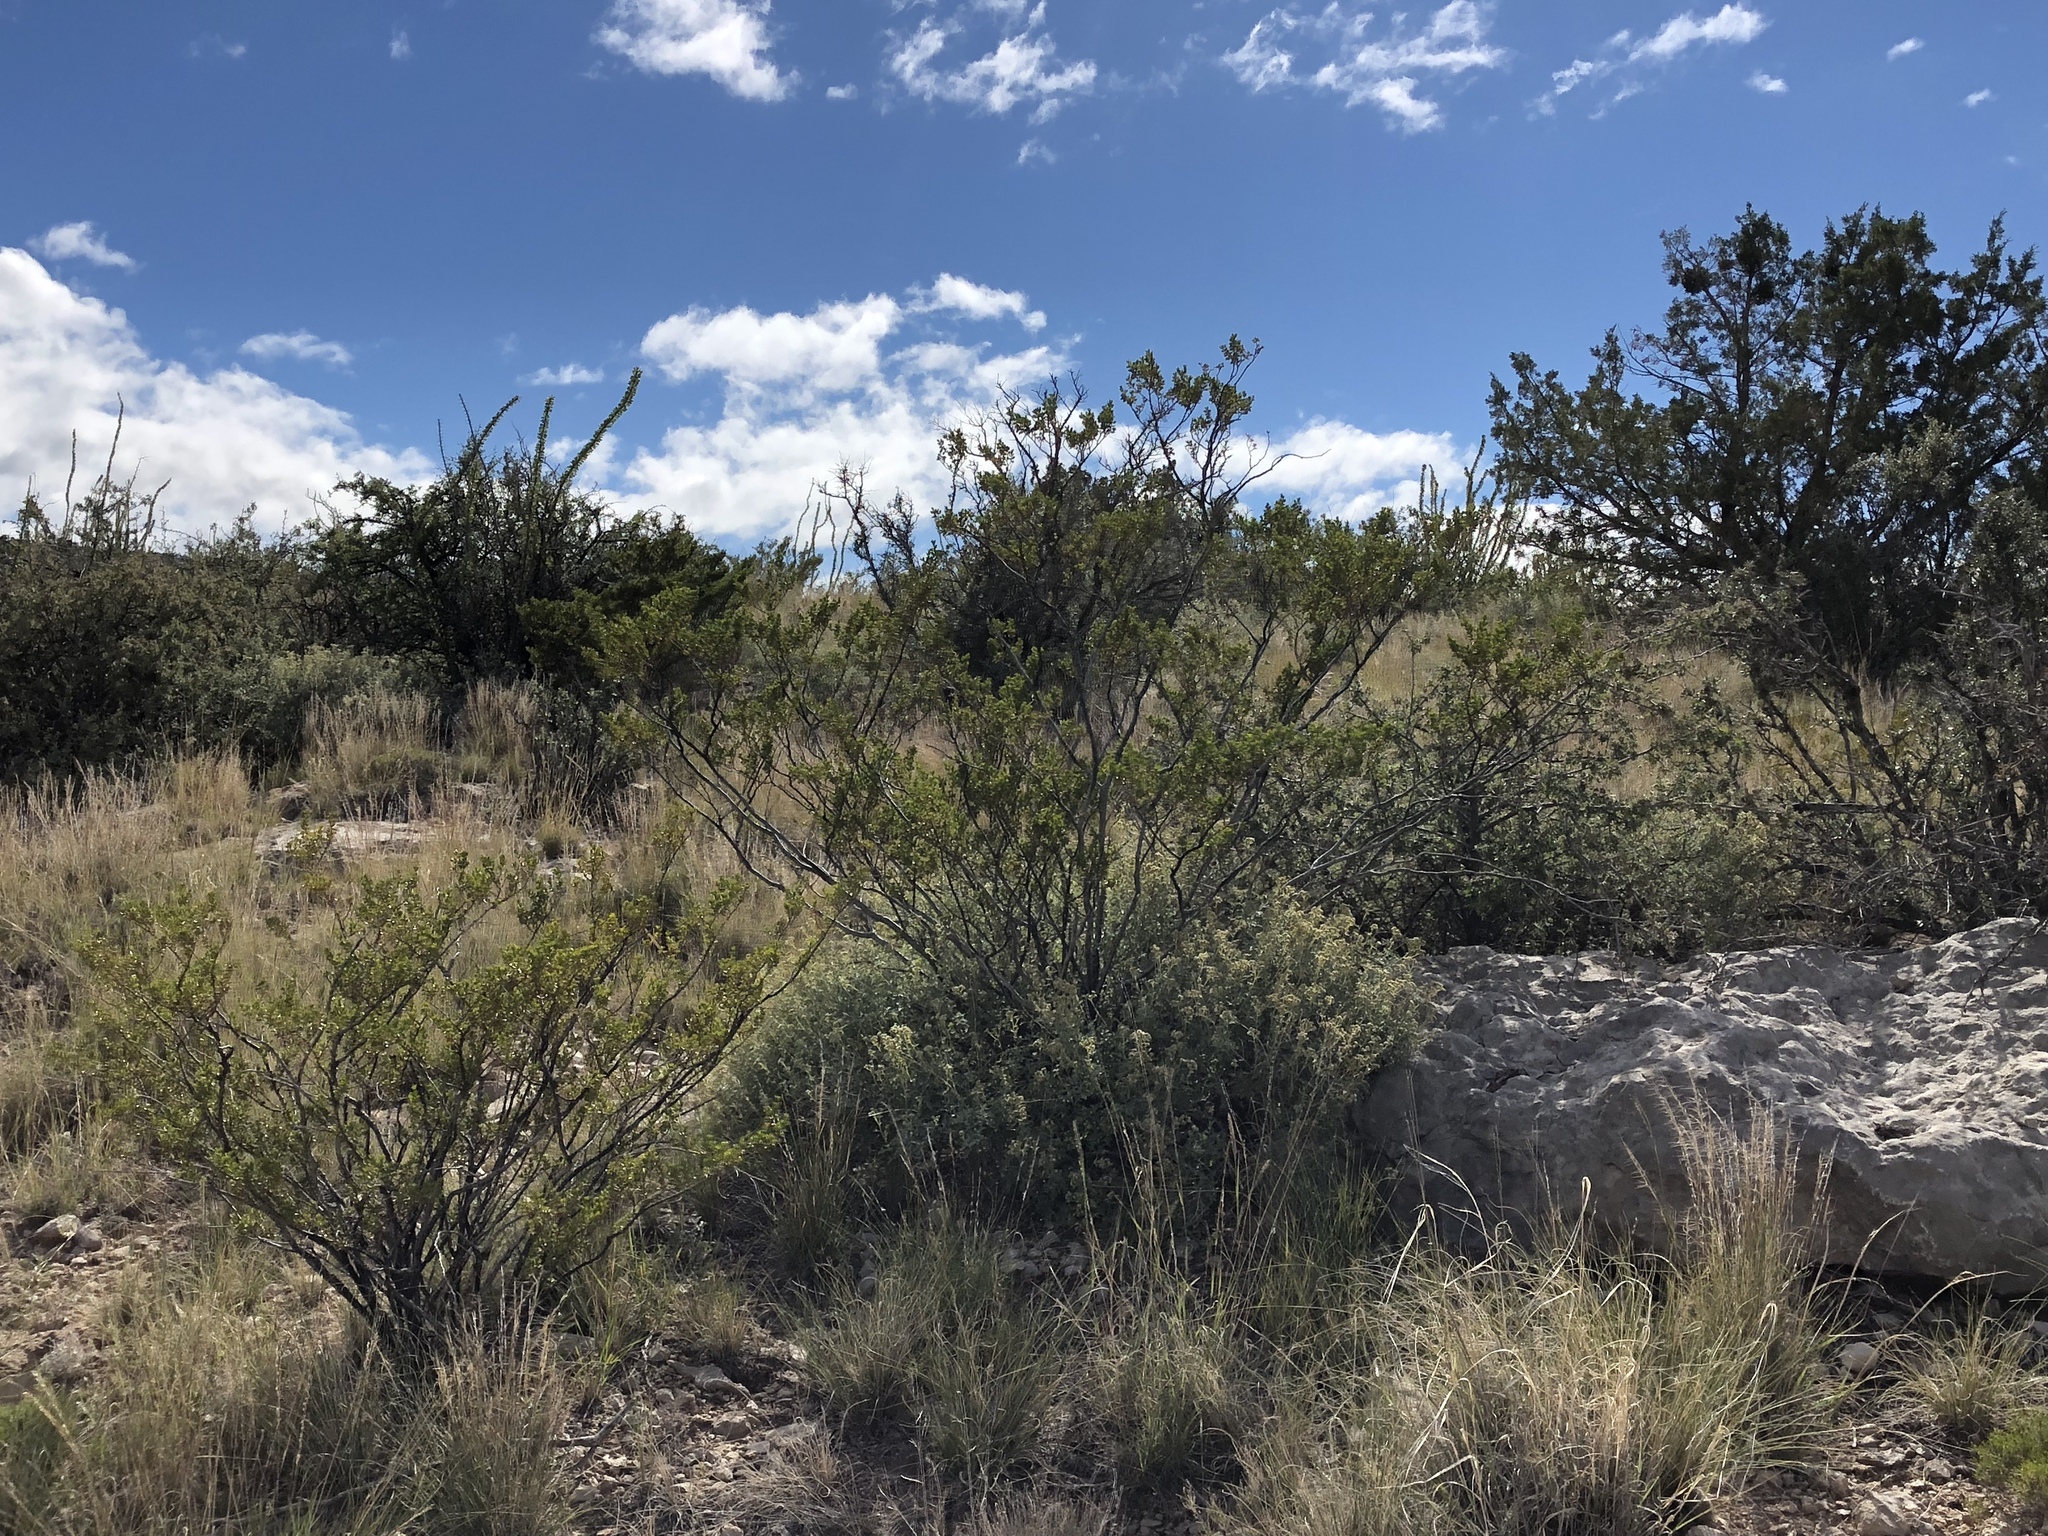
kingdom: Plantae
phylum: Tracheophyta
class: Magnoliopsida
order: Zygophyllales
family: Zygophyllaceae
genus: Larrea
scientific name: Larrea tridentata
